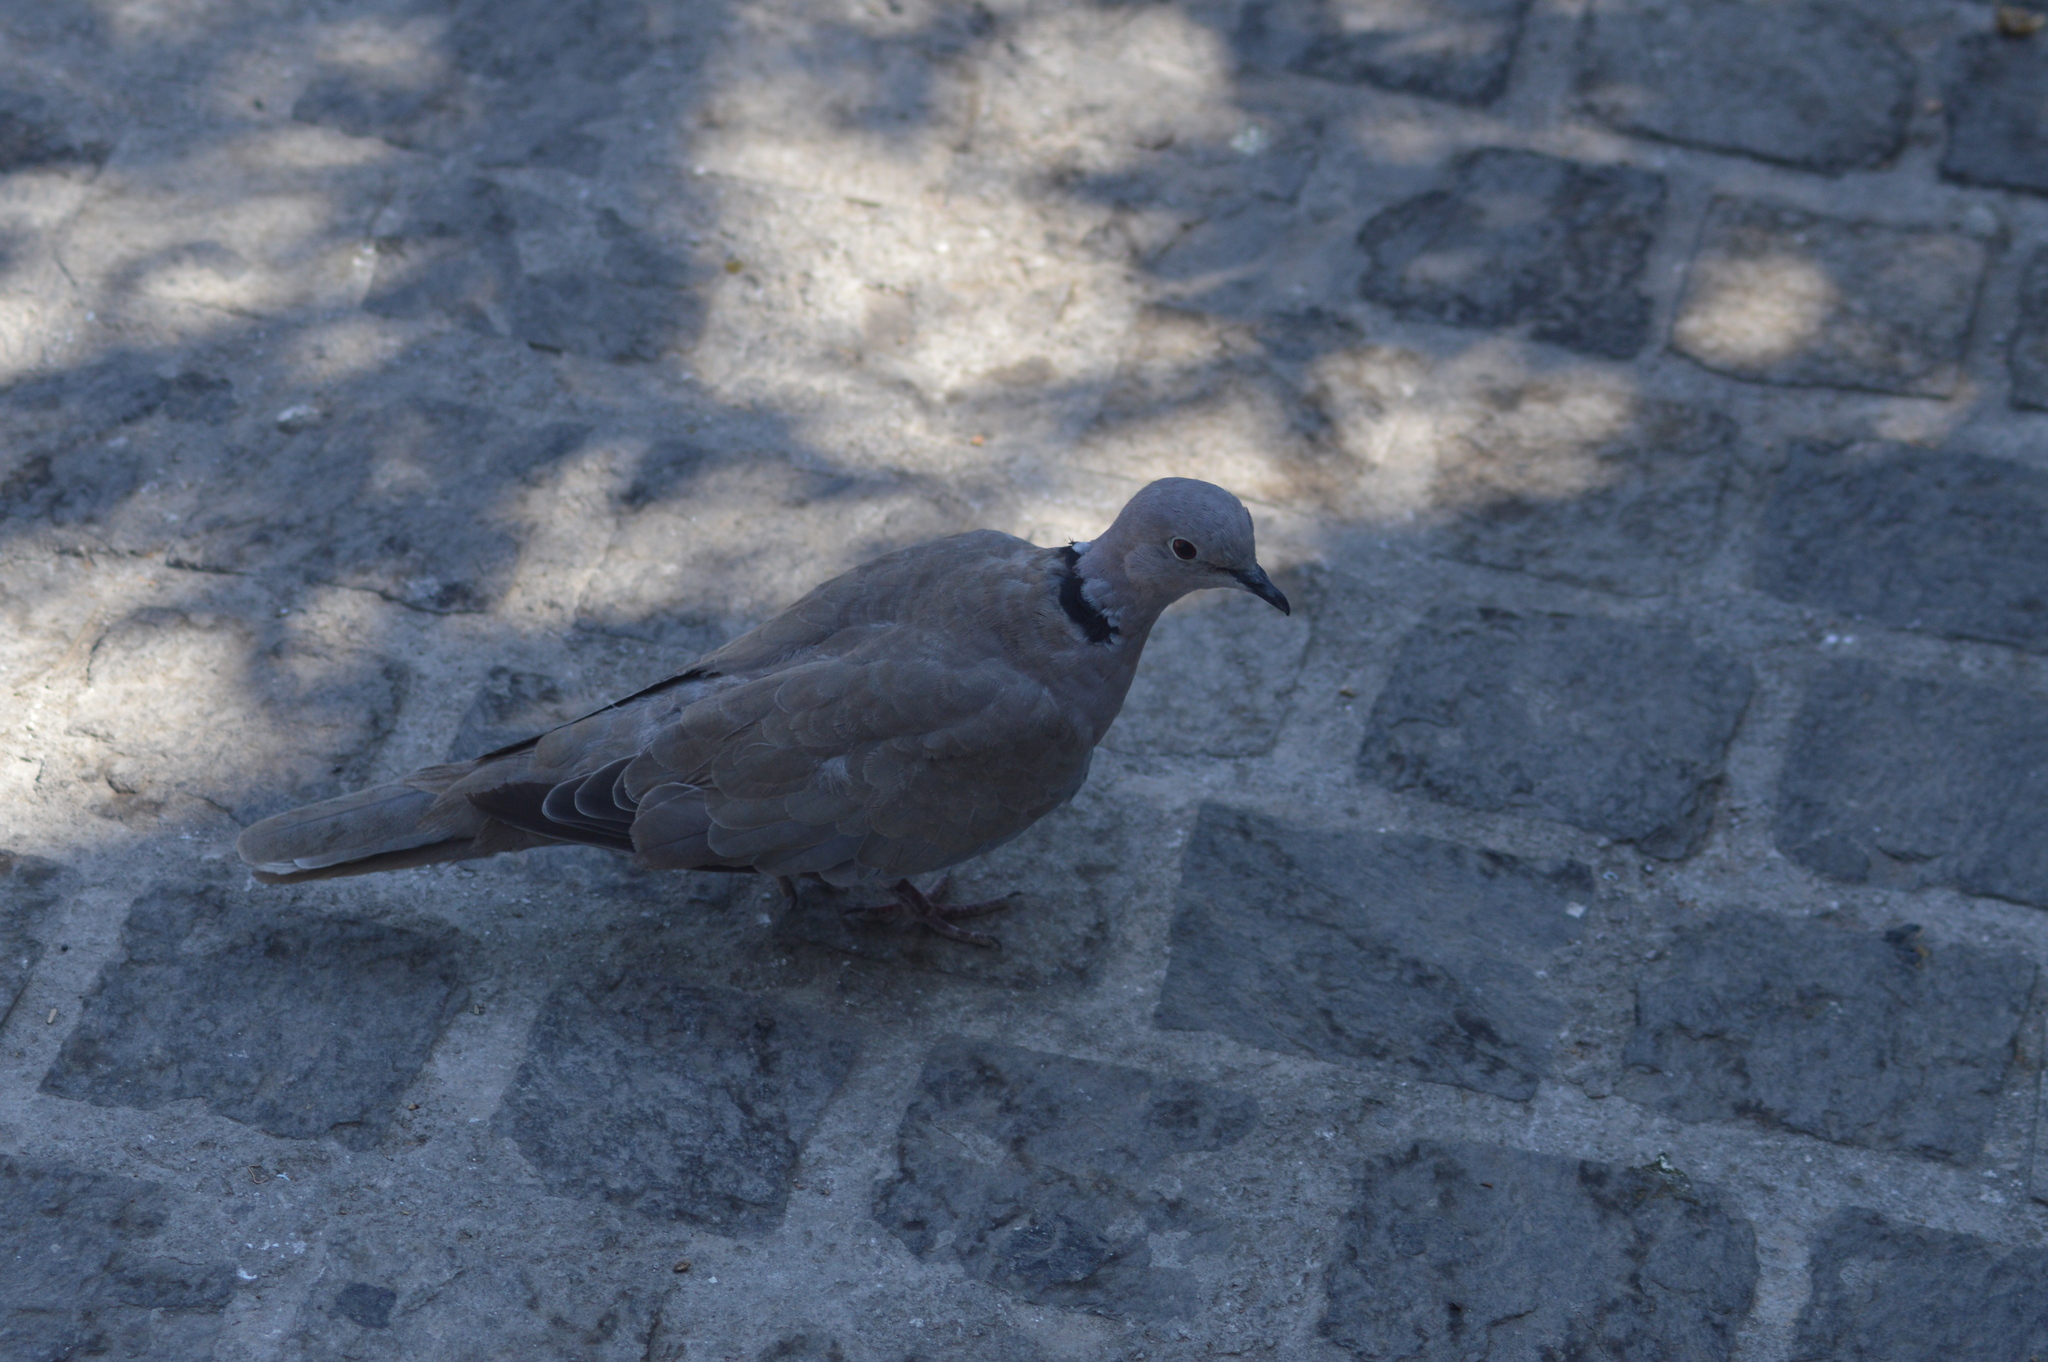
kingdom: Animalia
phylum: Chordata
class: Aves
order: Columbiformes
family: Columbidae
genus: Streptopelia
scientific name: Streptopelia decaocto
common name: Eurasian collared dove
